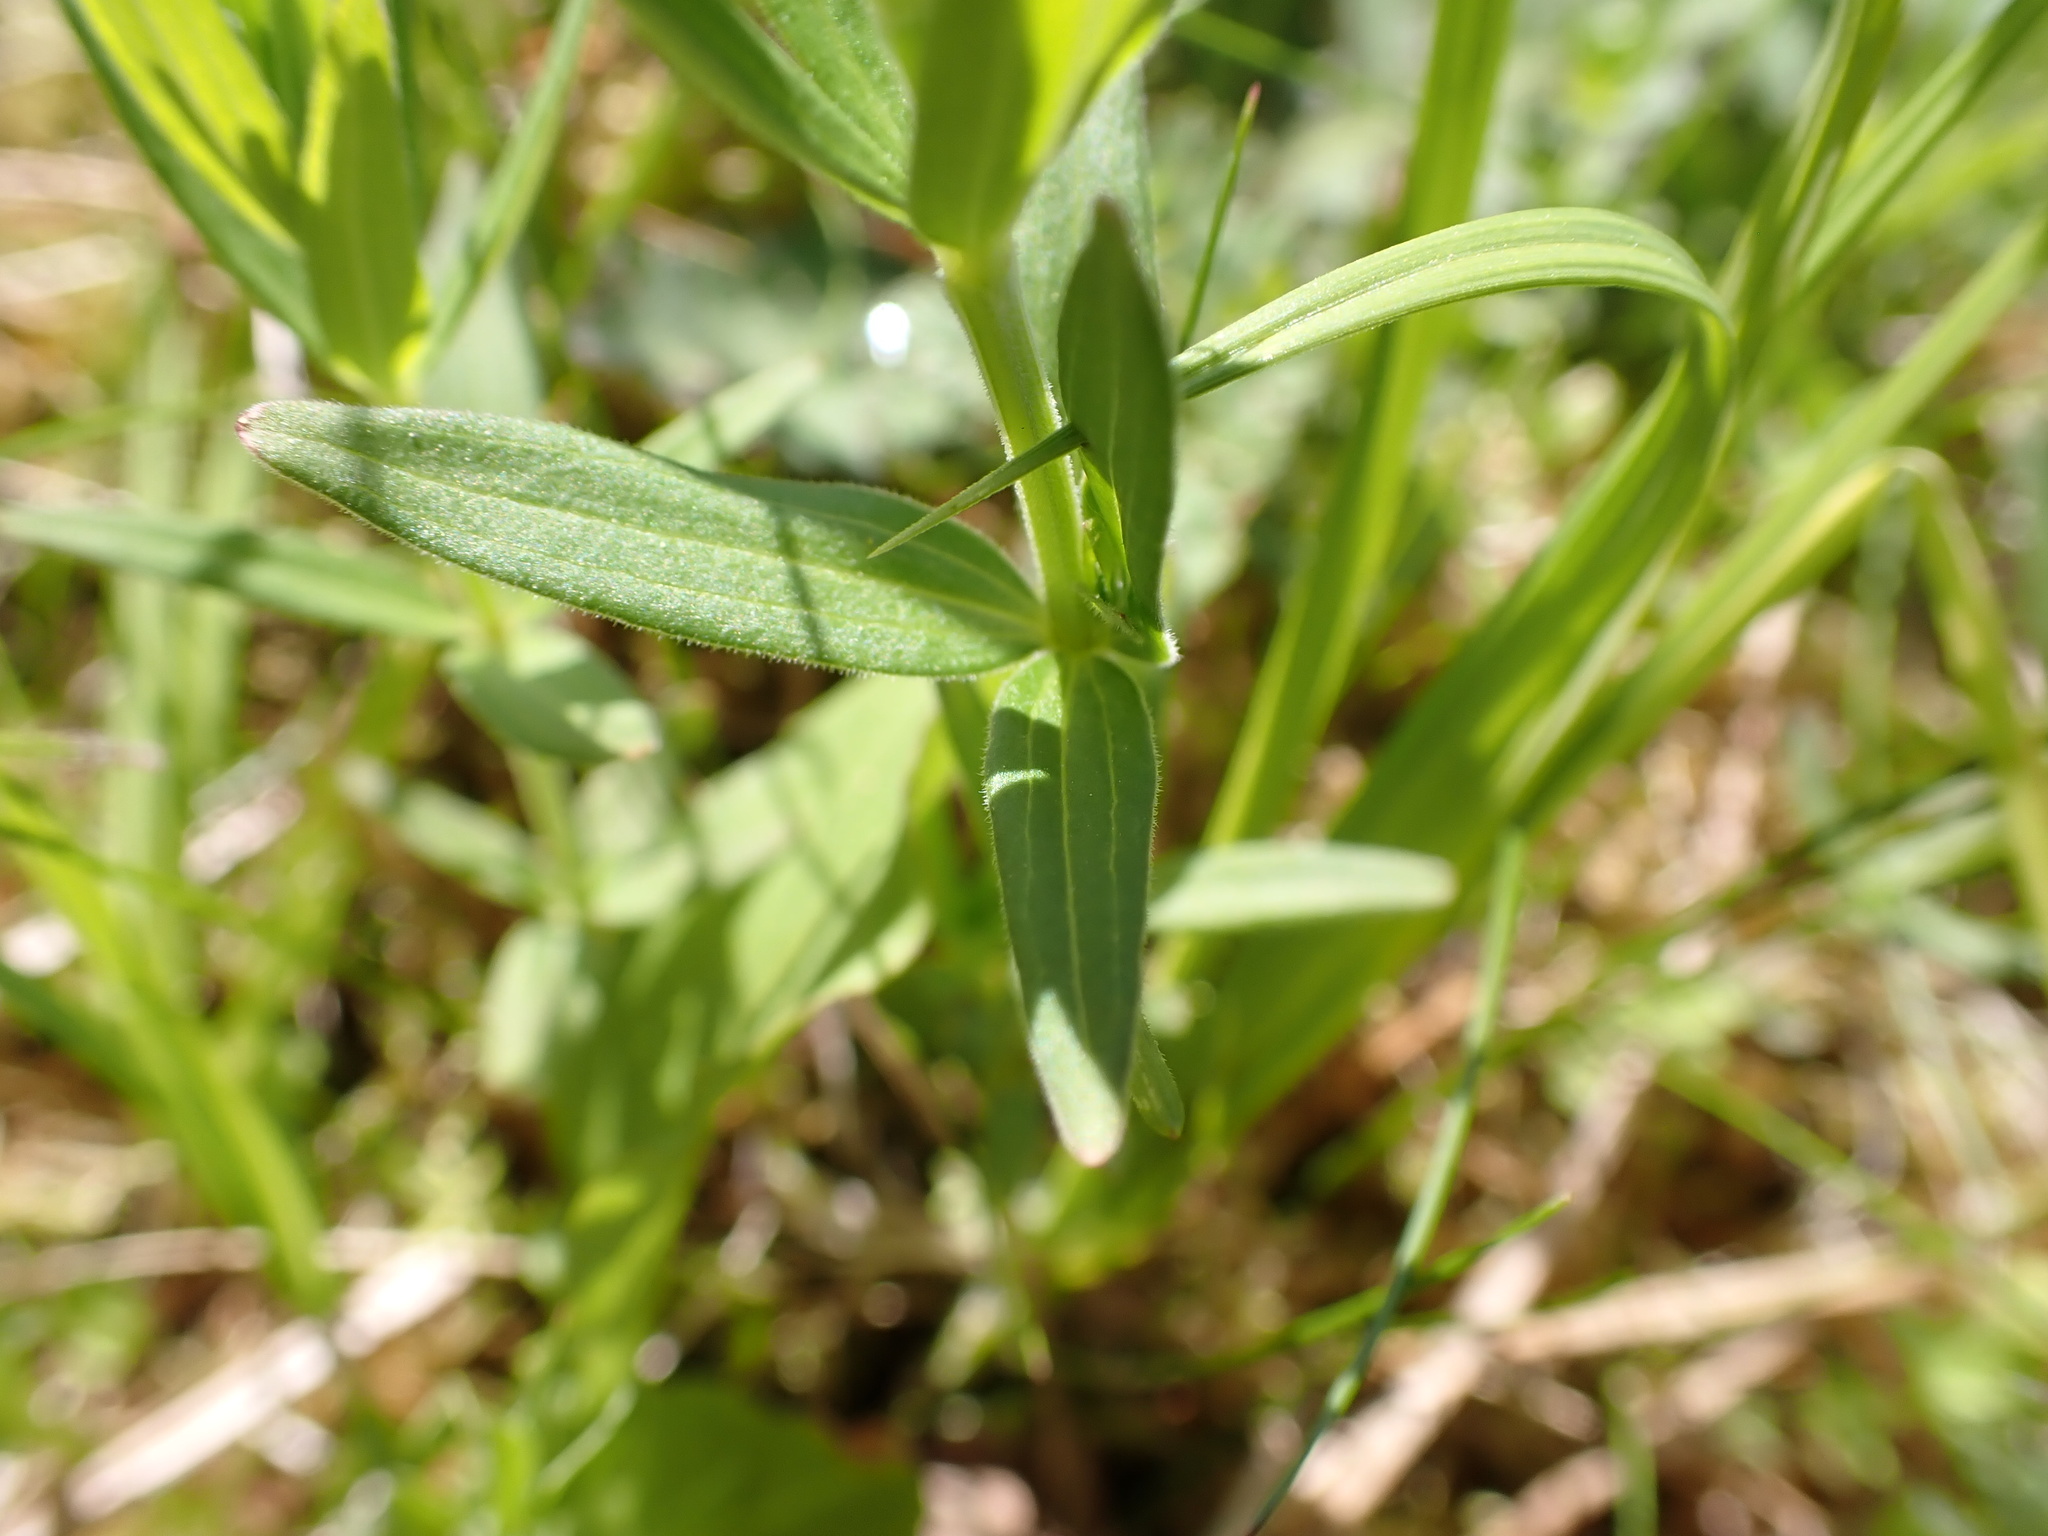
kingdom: Plantae
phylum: Tracheophyta
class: Magnoliopsida
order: Gentianales
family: Rubiaceae
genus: Galium
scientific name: Galium boreale
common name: Northern bedstraw
